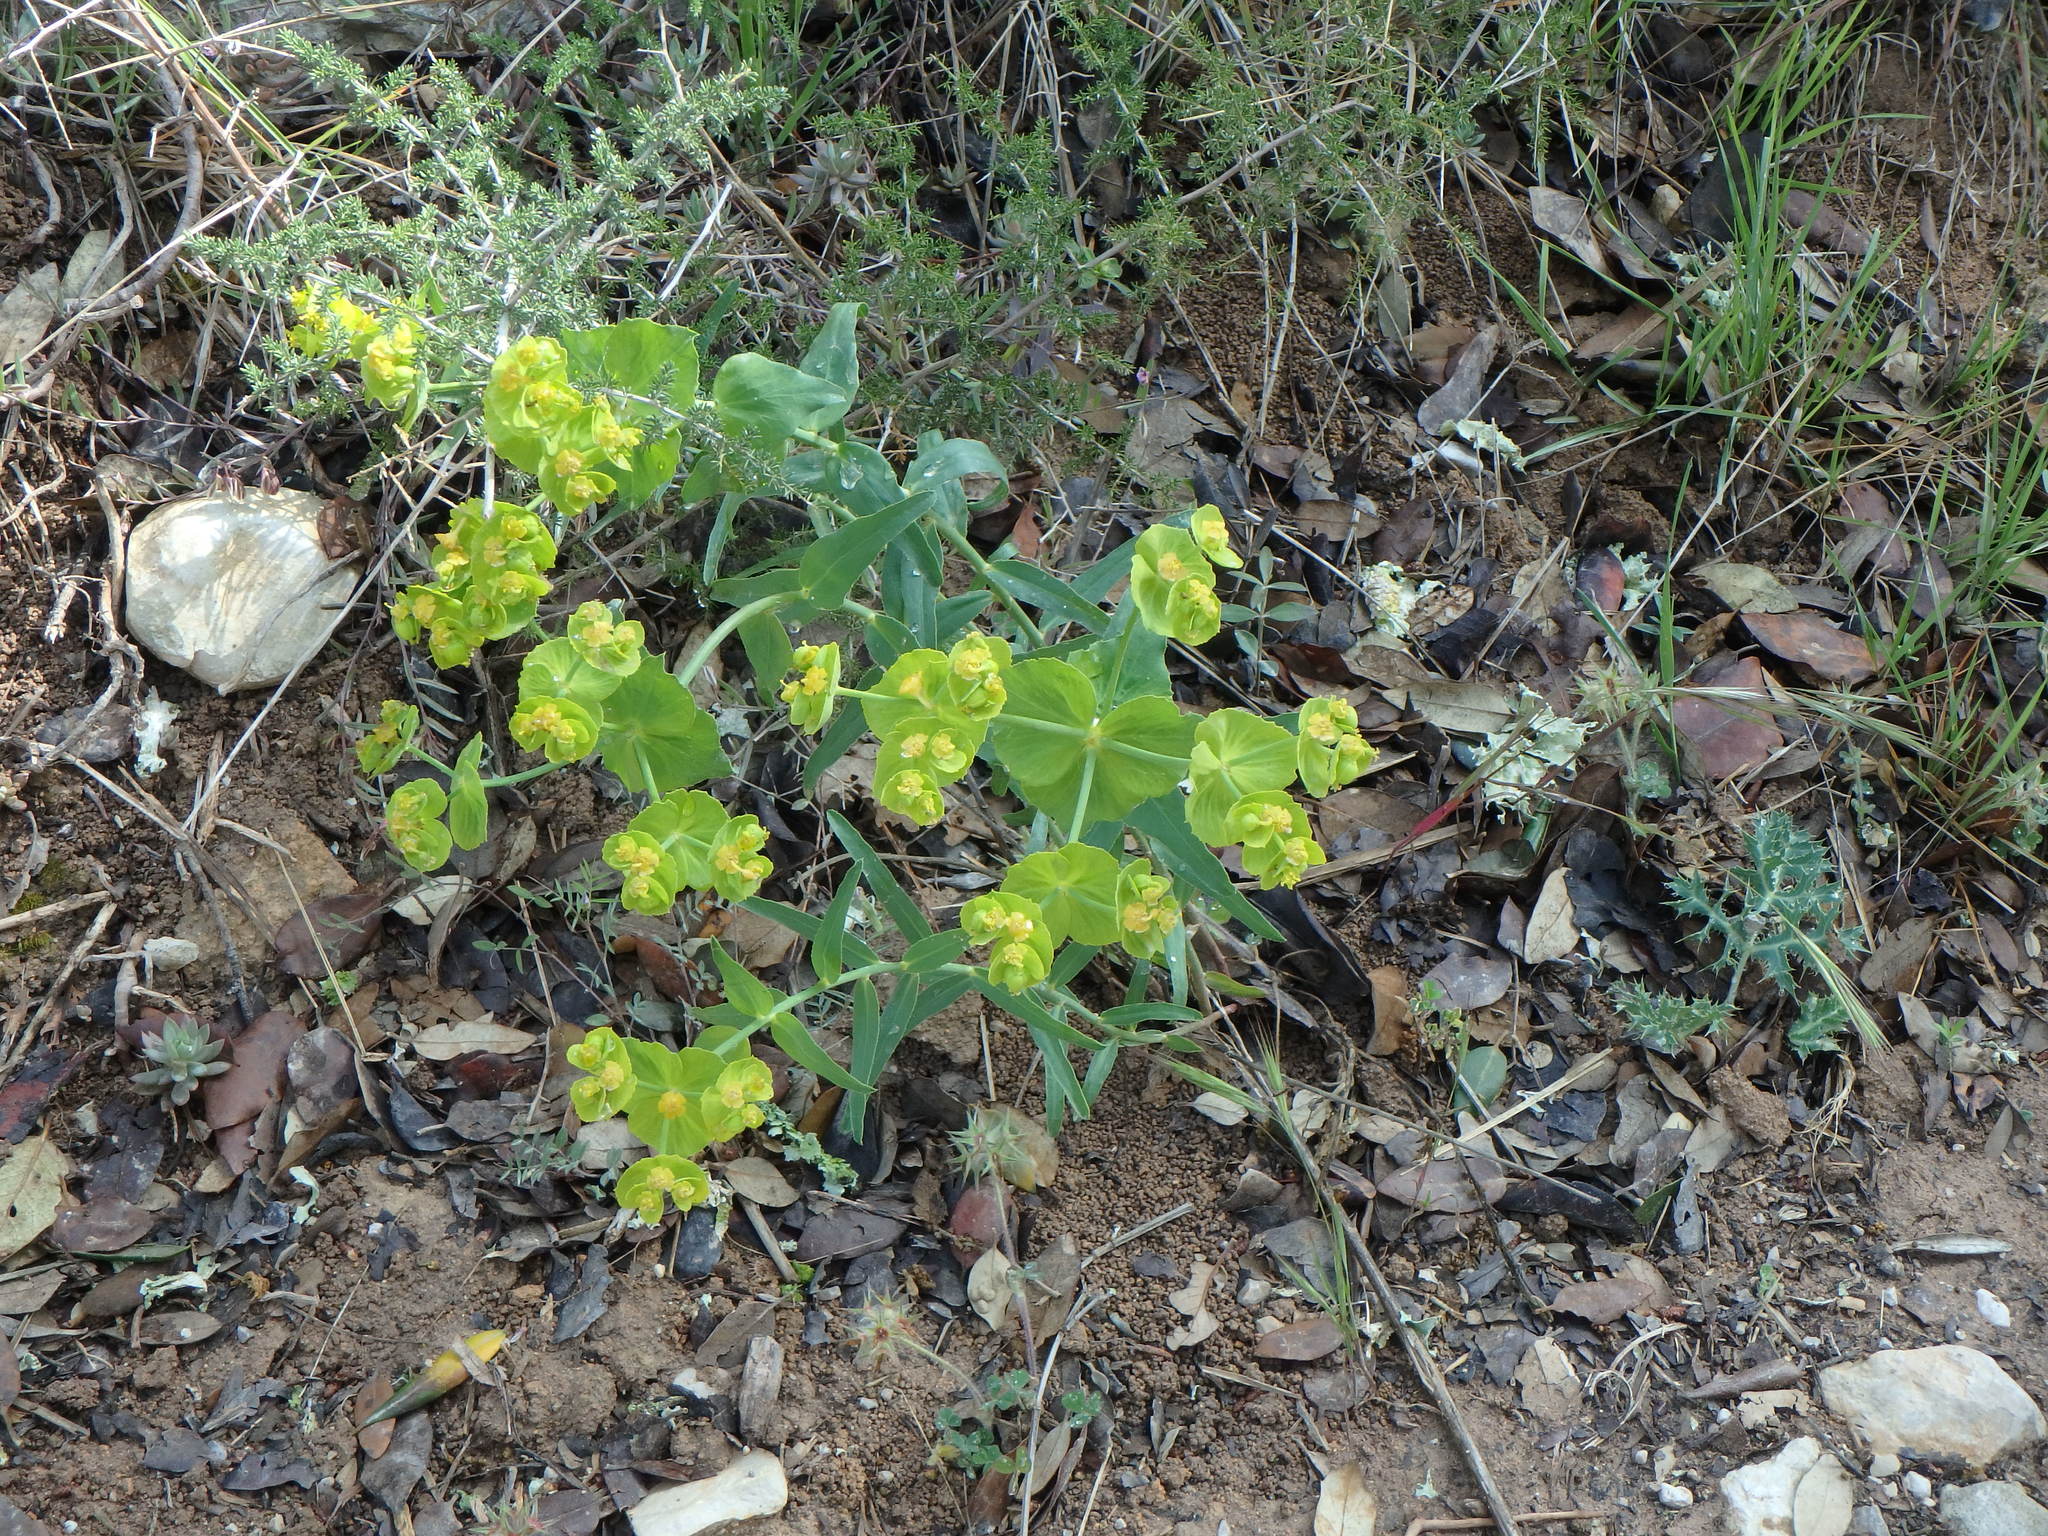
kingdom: Plantae
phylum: Tracheophyta
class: Magnoliopsida
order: Malpighiales
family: Euphorbiaceae
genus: Euphorbia
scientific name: Euphorbia serrata
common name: Serrate spurge
